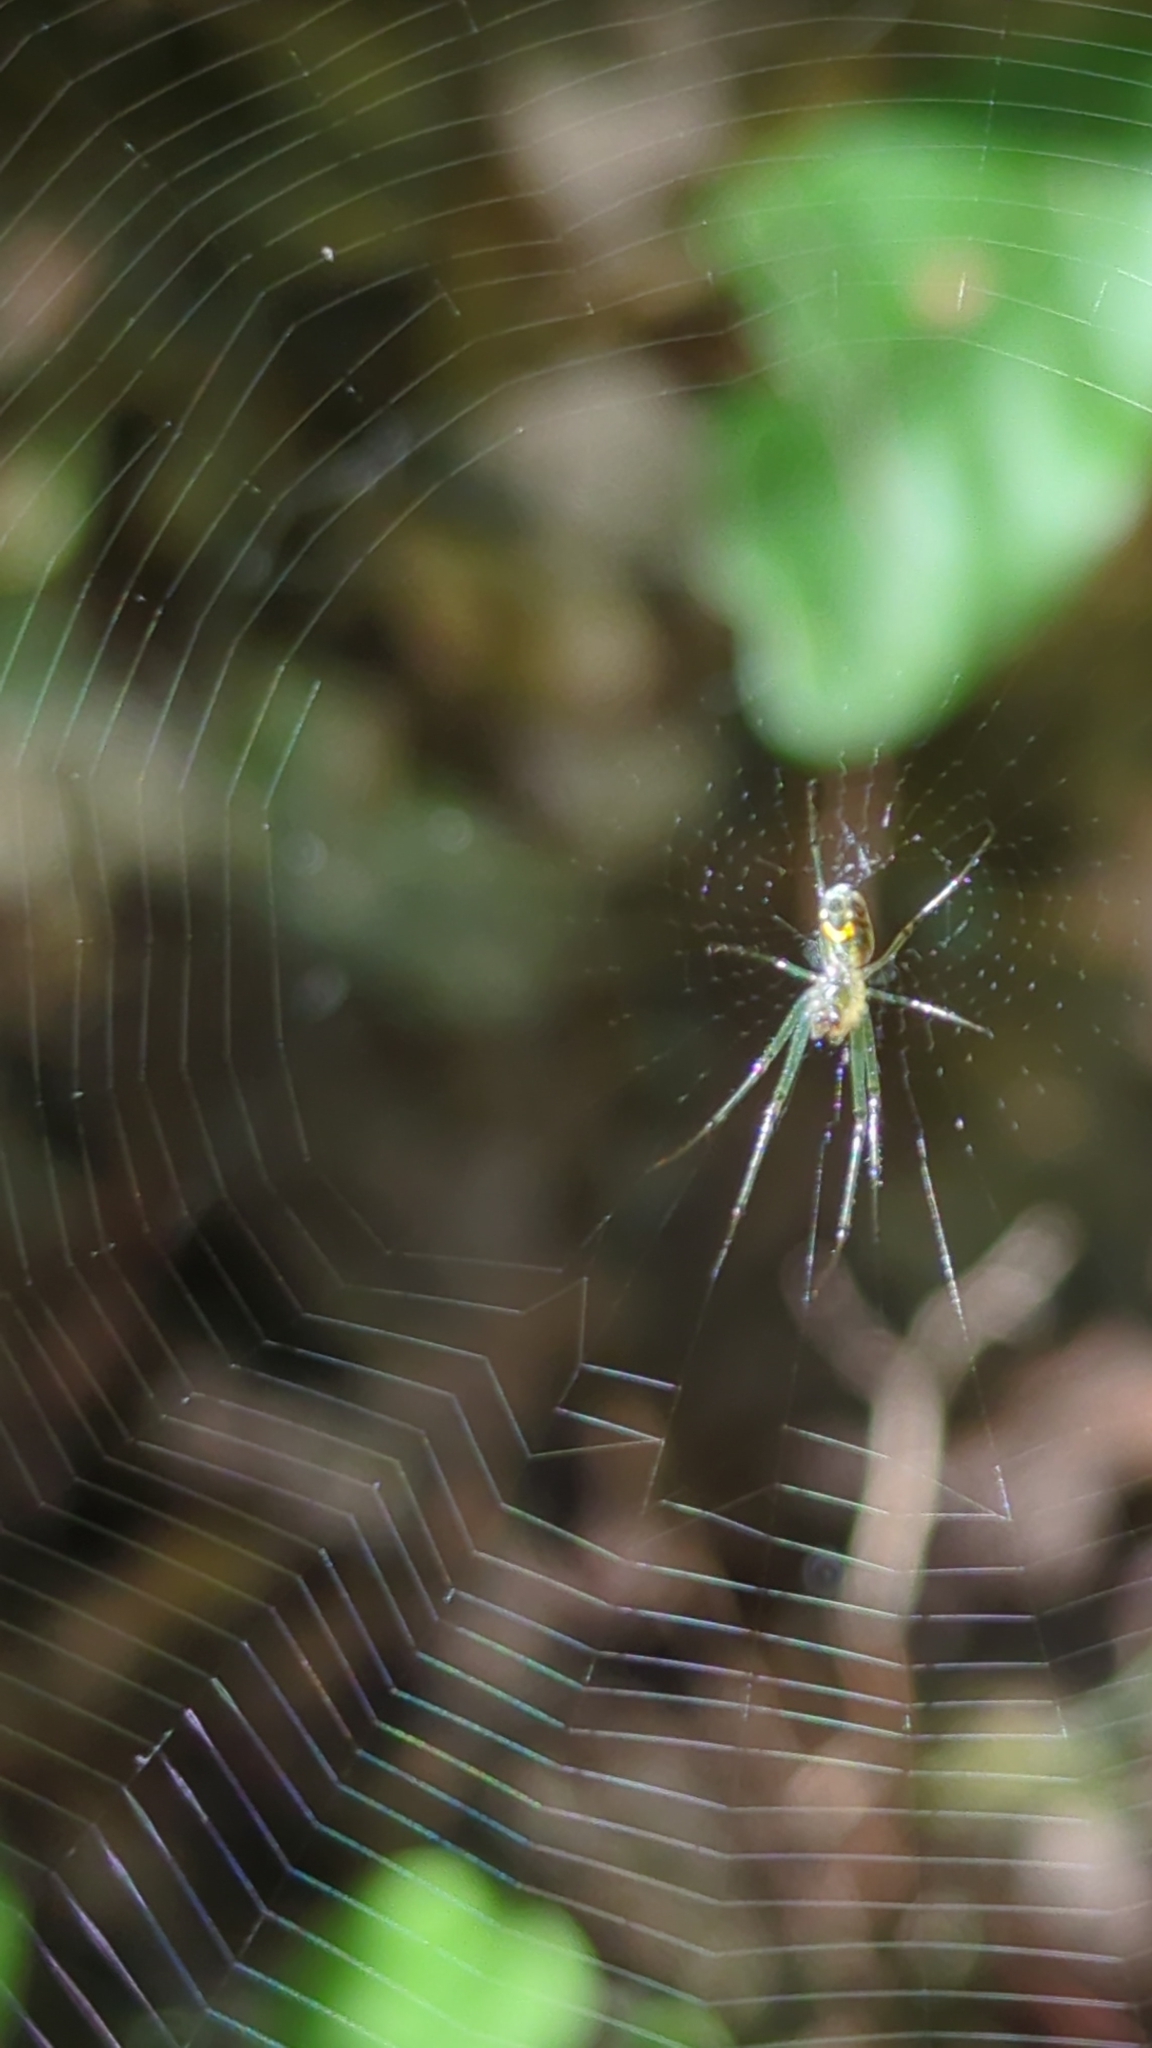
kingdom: Animalia
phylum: Arthropoda
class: Arachnida
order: Araneae
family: Tetragnathidae
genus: Leucauge
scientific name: Leucauge venusta
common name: Longjawed orb weavers
